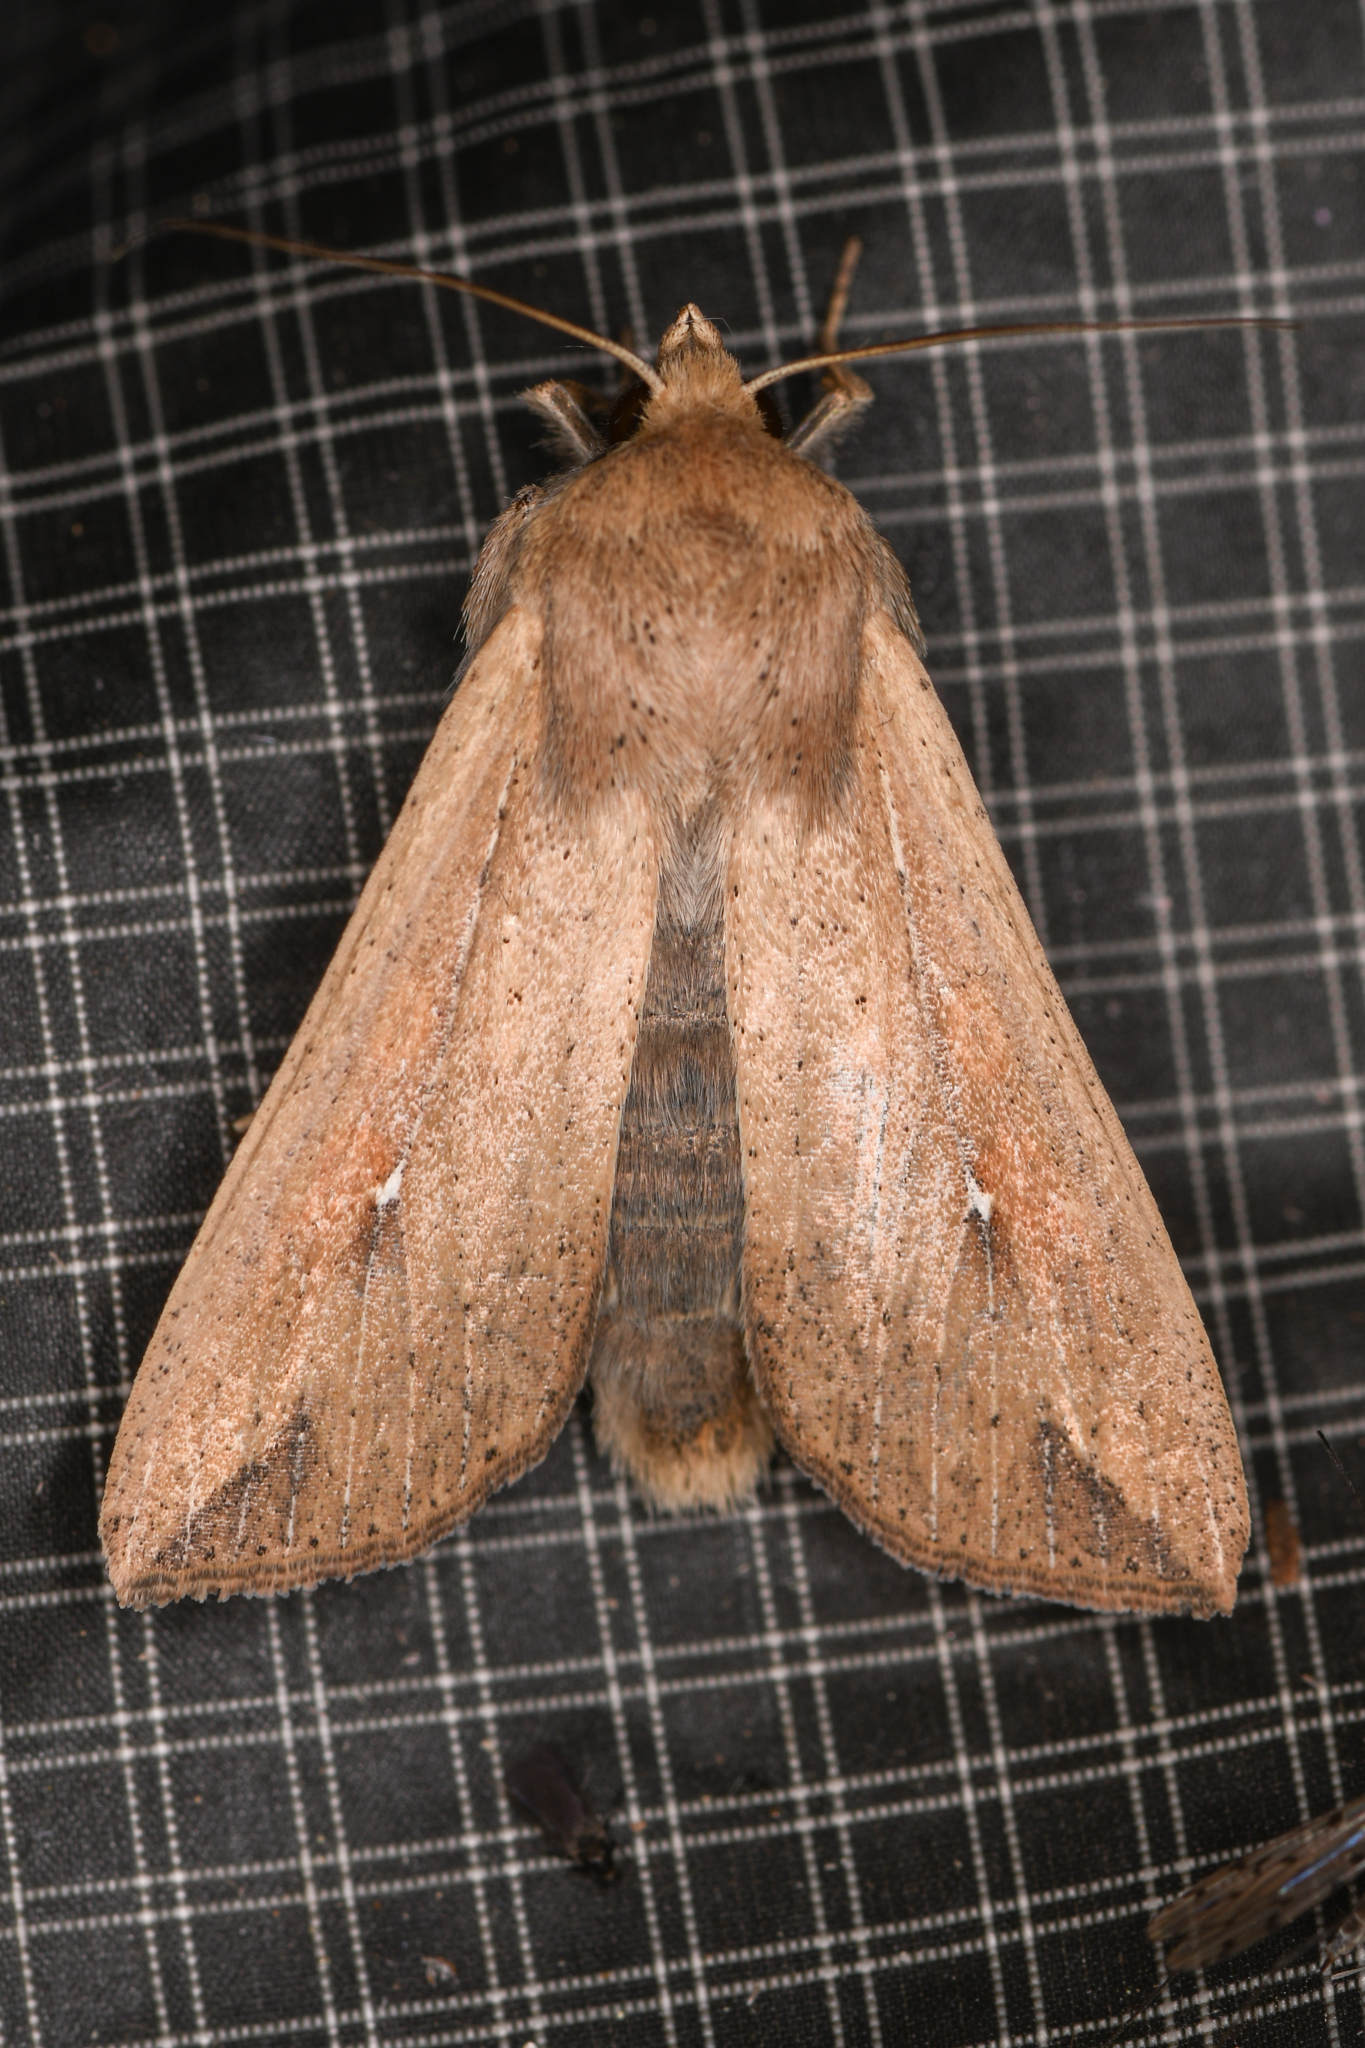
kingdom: Animalia
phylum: Arthropoda
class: Insecta
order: Lepidoptera
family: Noctuidae
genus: Mythimna
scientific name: Mythimna unipuncta
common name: White-speck
